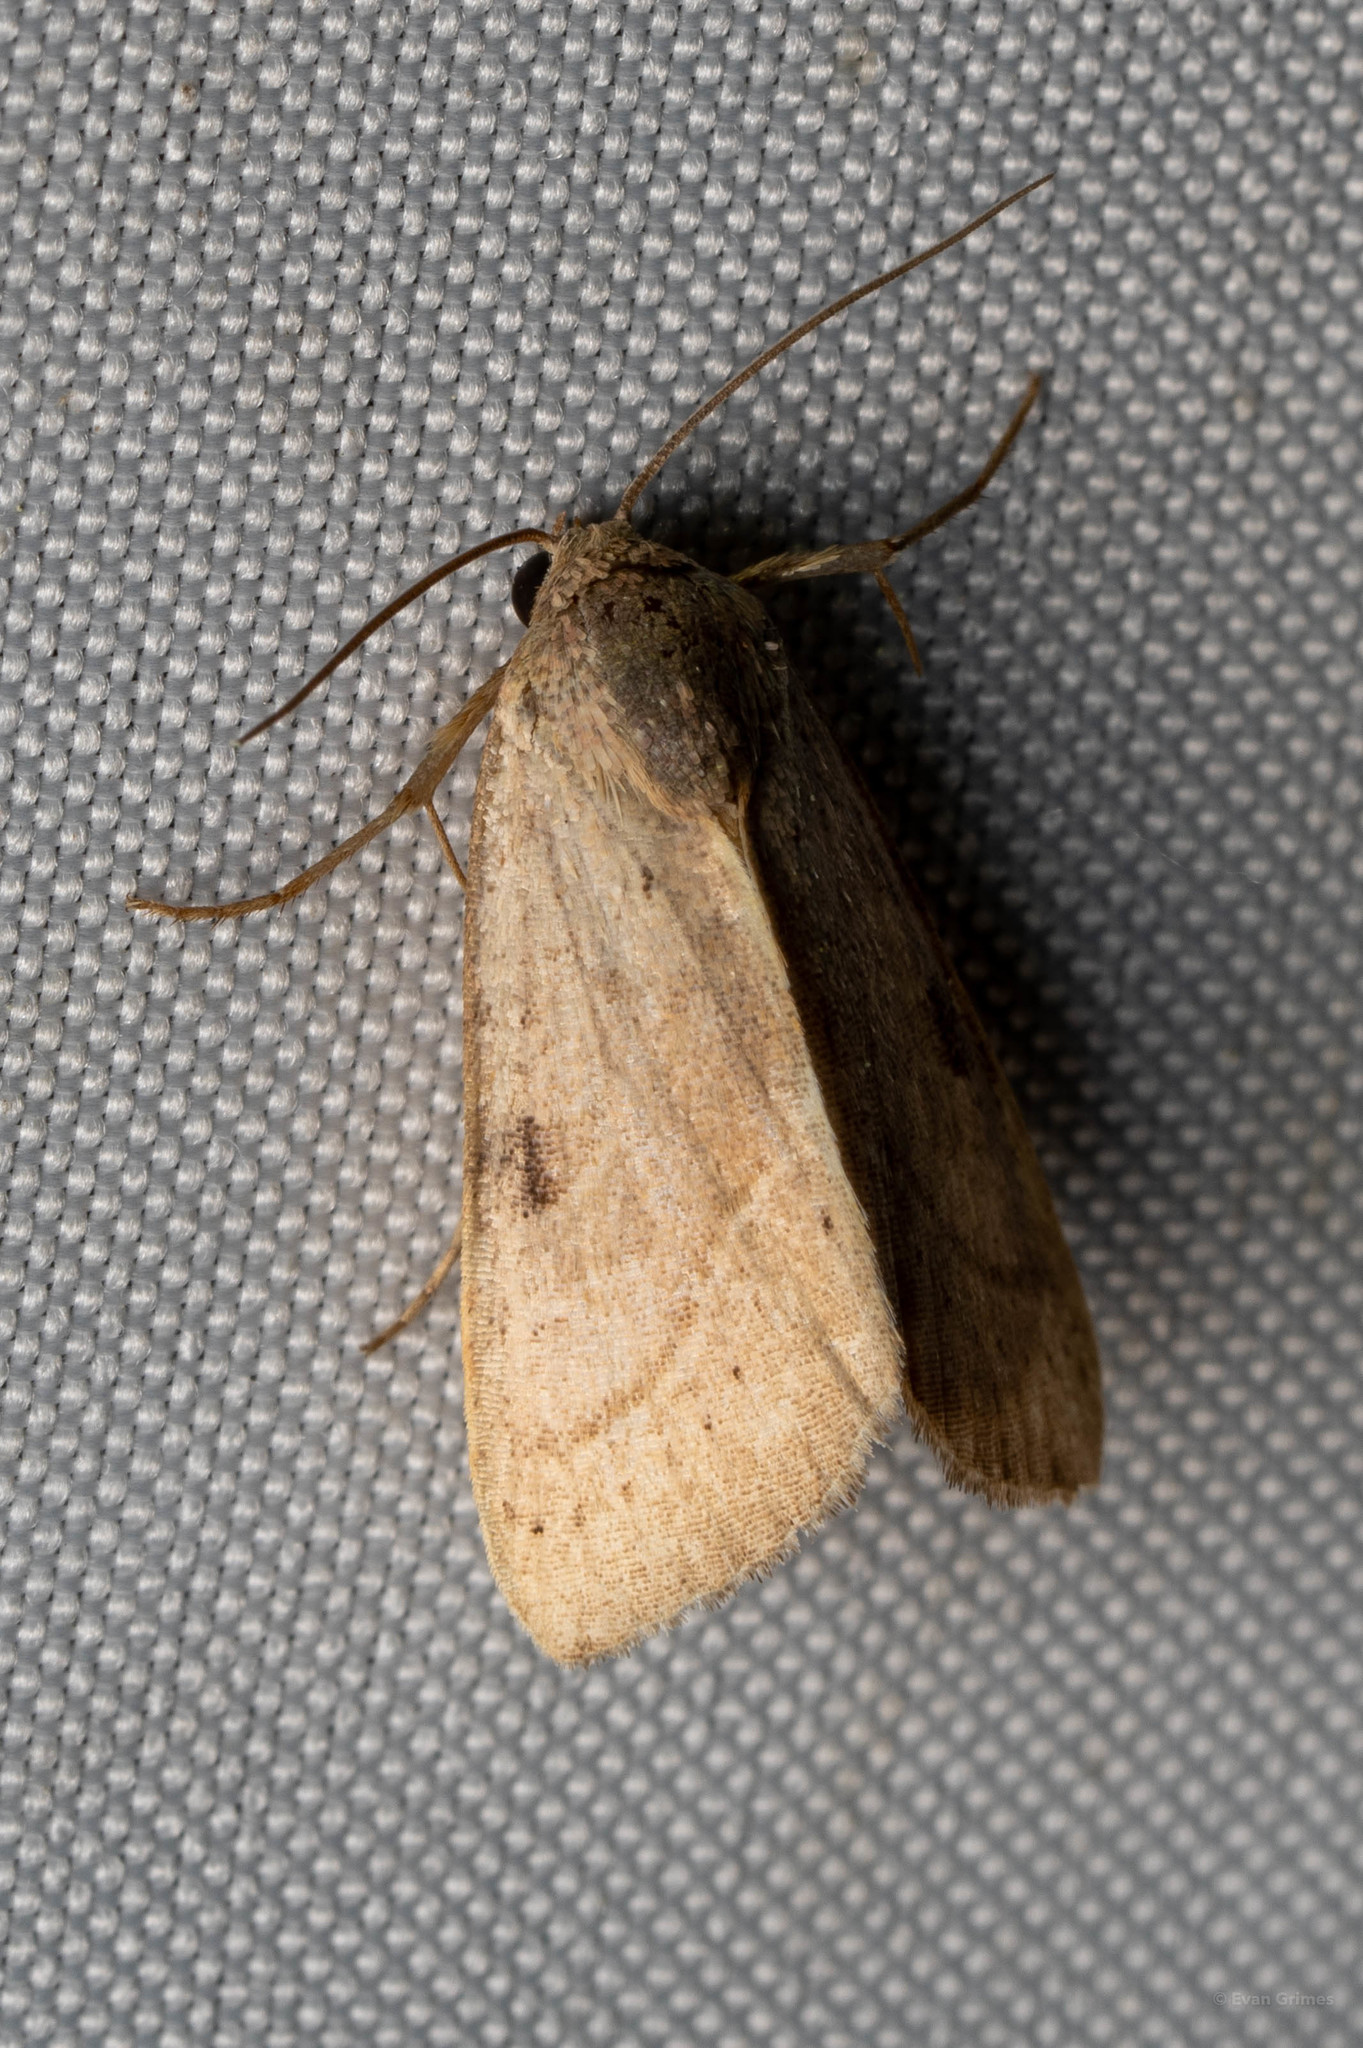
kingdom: Animalia
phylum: Arthropoda
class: Insecta
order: Lepidoptera
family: Noctuidae
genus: Galgula
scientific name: Galgula partita
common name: Wedgeling
